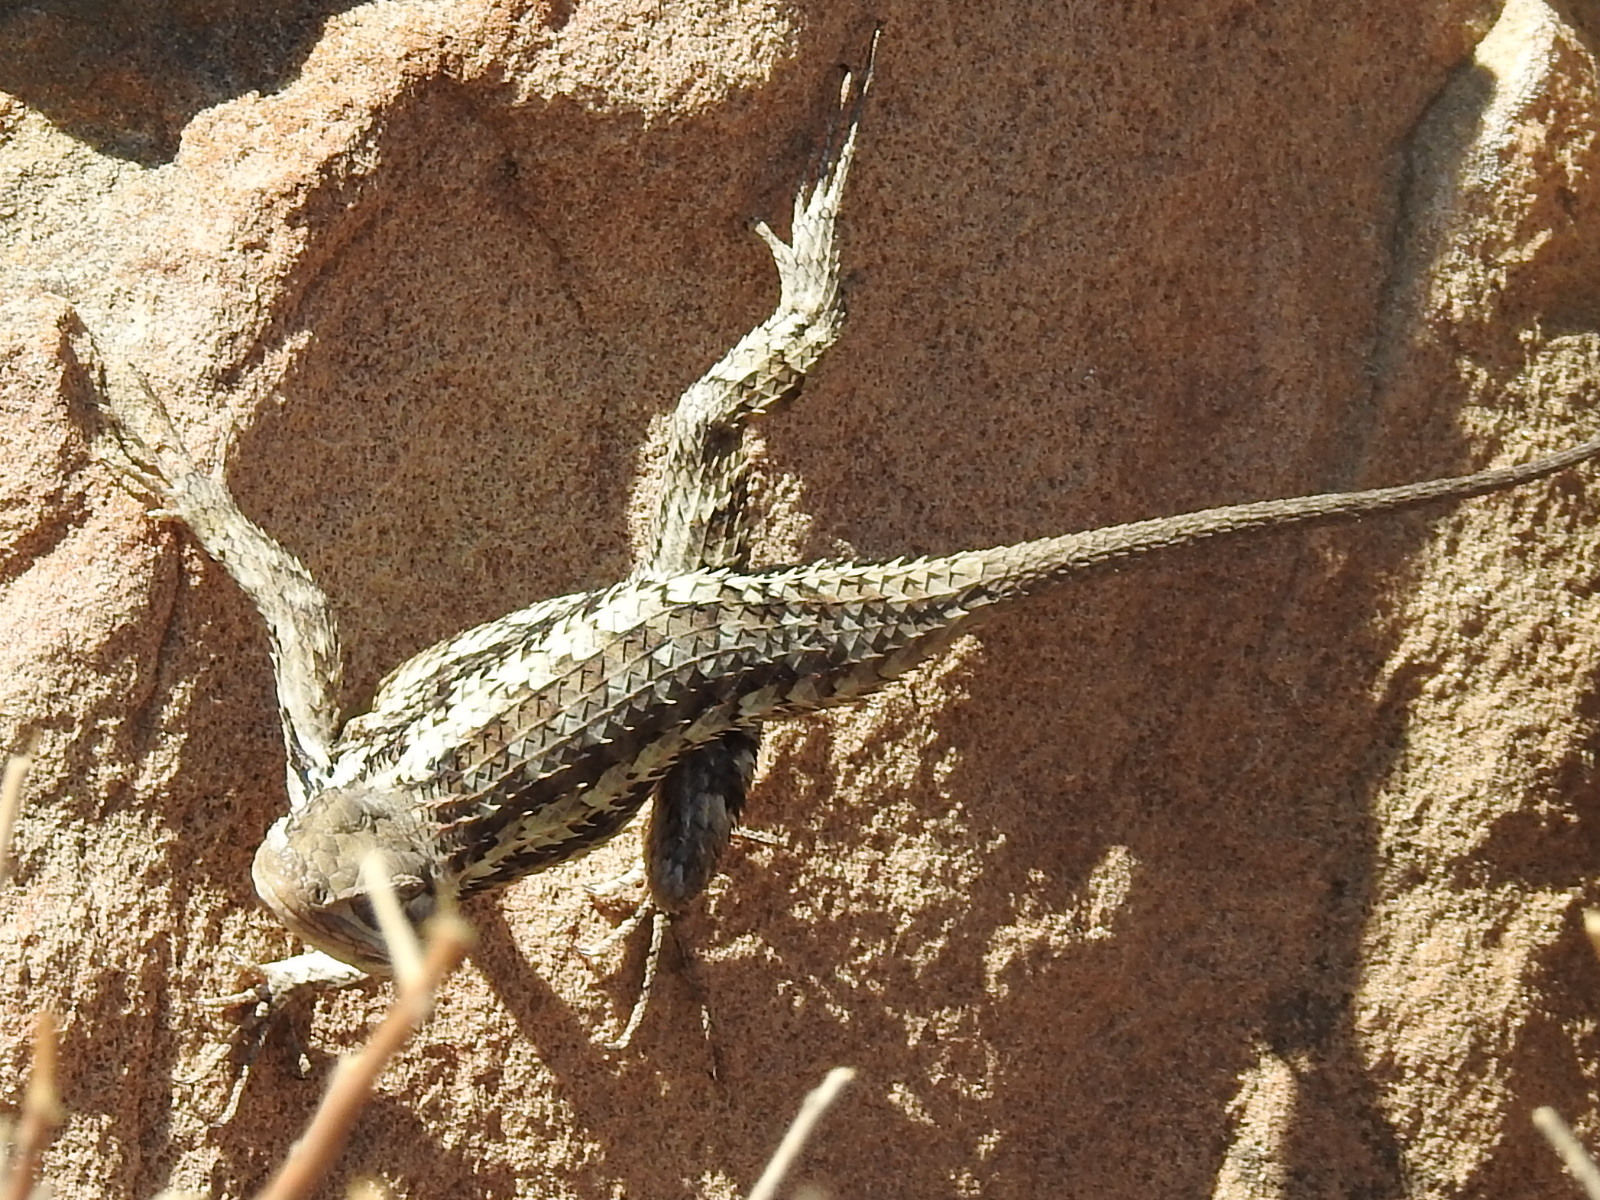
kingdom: Animalia
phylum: Chordata
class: Squamata
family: Phrynosomatidae
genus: Sceloporus
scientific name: Sceloporus olivaceus
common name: Texas spiny lizard
